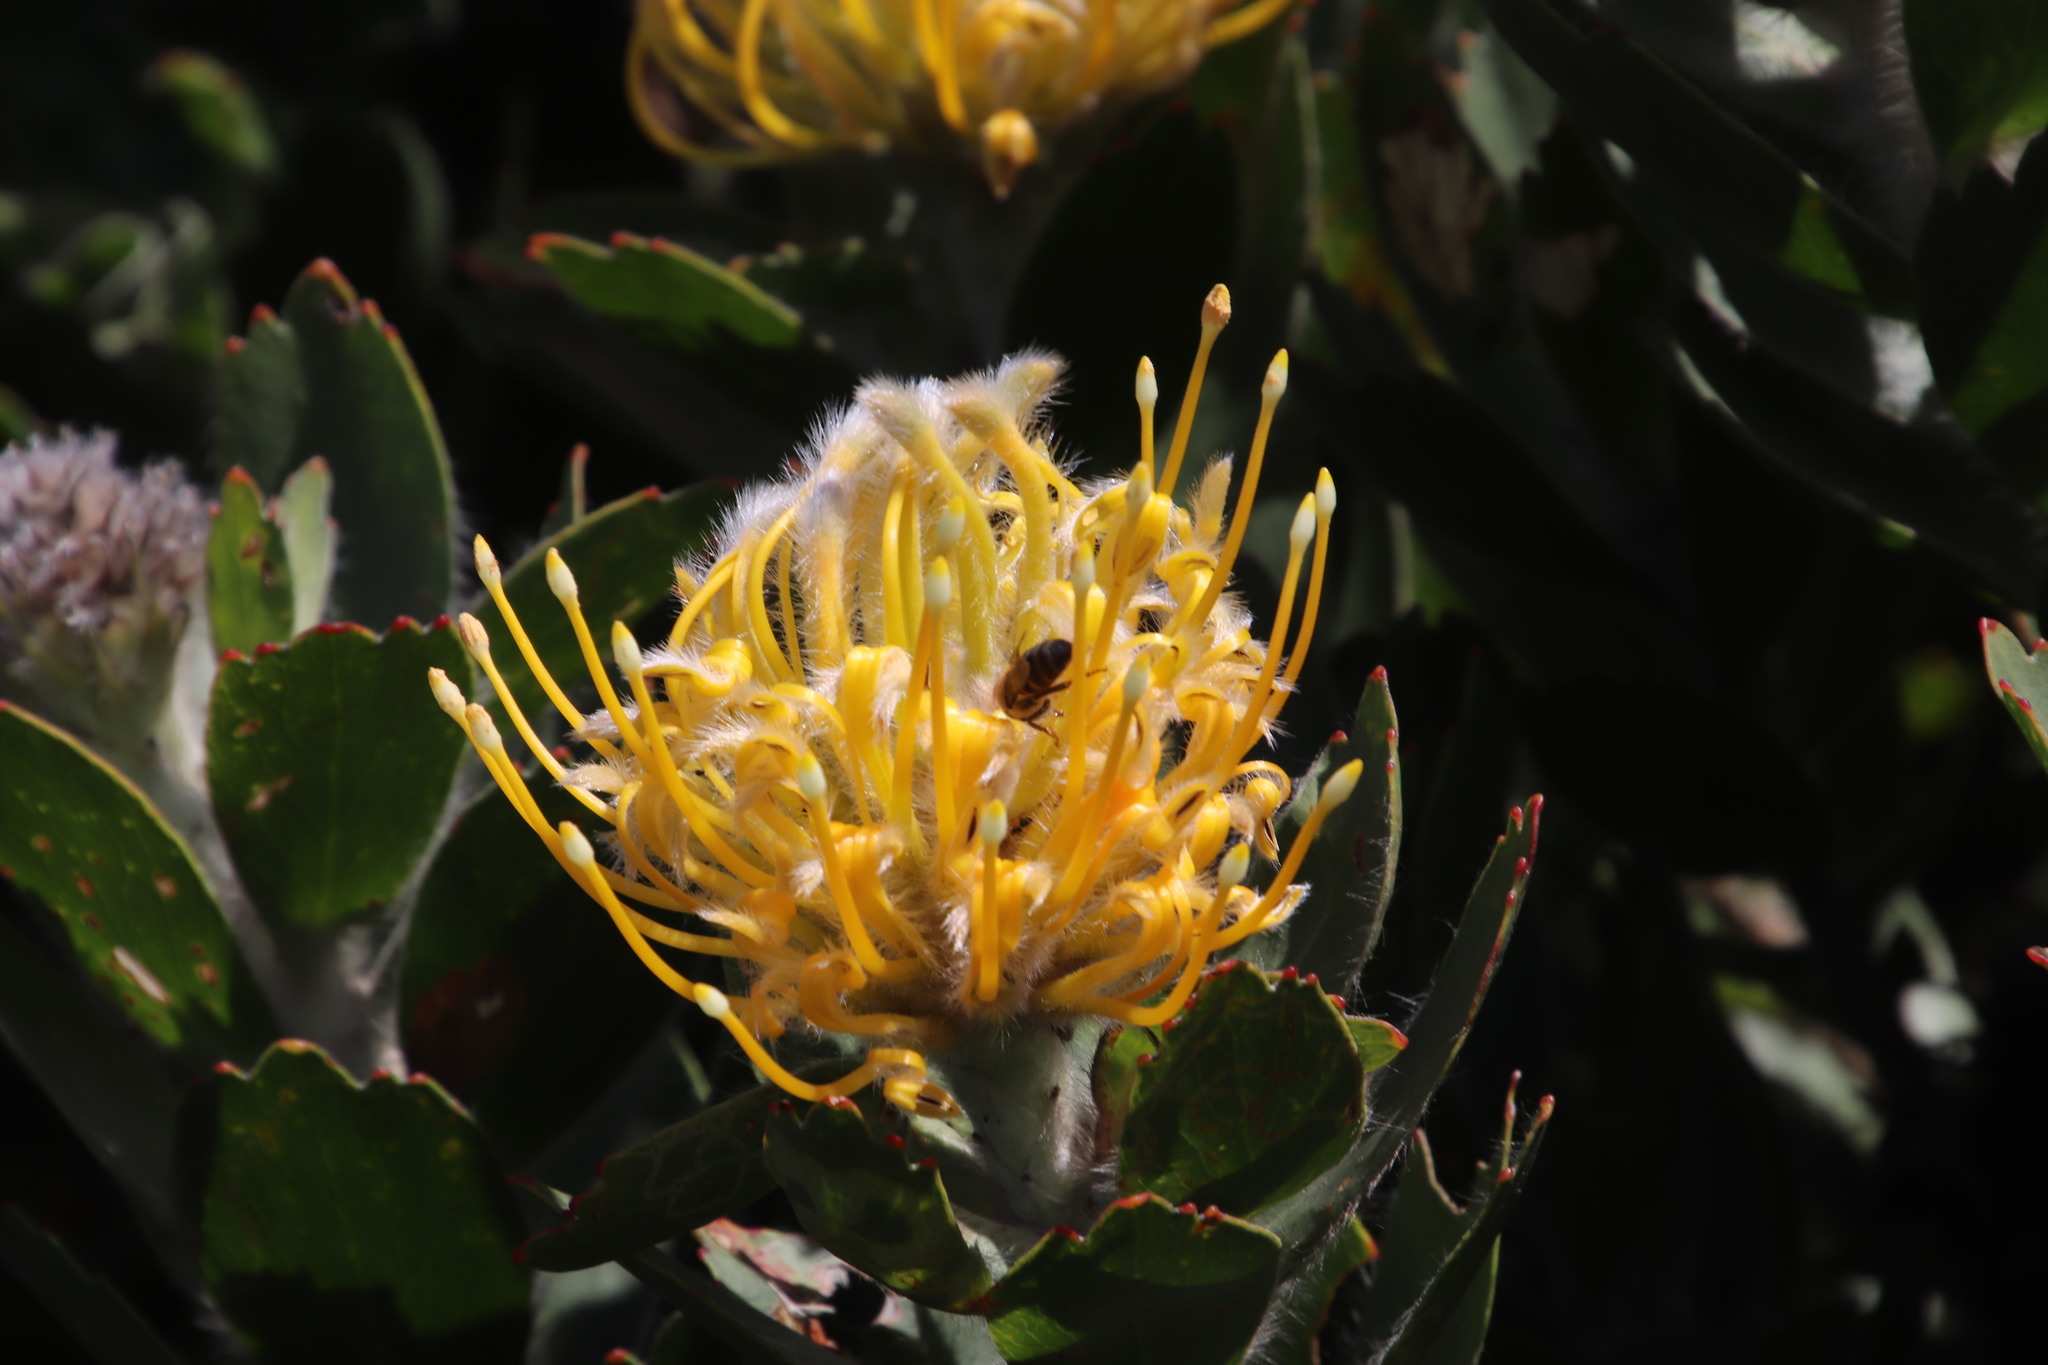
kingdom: Plantae
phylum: Tracheophyta
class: Magnoliopsida
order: Proteales
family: Proteaceae
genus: Leucospermum
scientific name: Leucospermum conocarpodendron
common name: Tree pincushion
